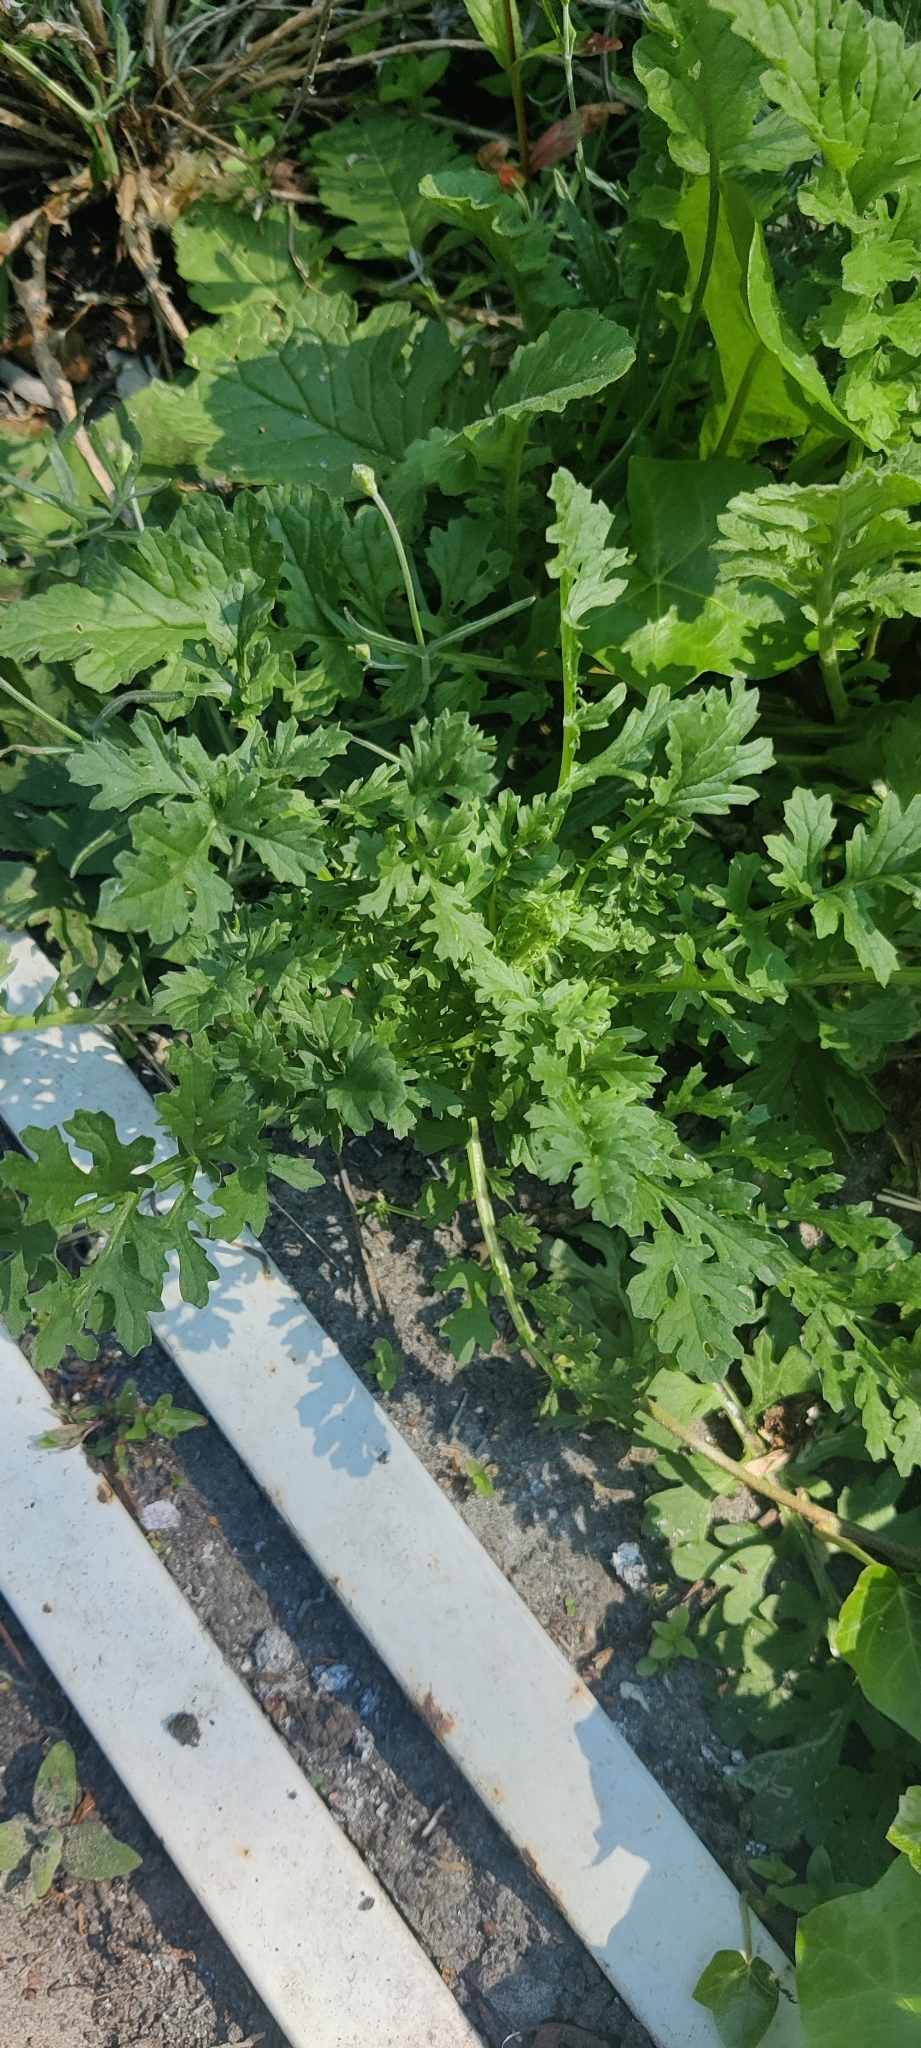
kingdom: Plantae
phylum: Tracheophyta
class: Magnoliopsida
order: Ranunculales
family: Papaveraceae
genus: Chelidonium
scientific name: Chelidonium majus
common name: Greater celandine
